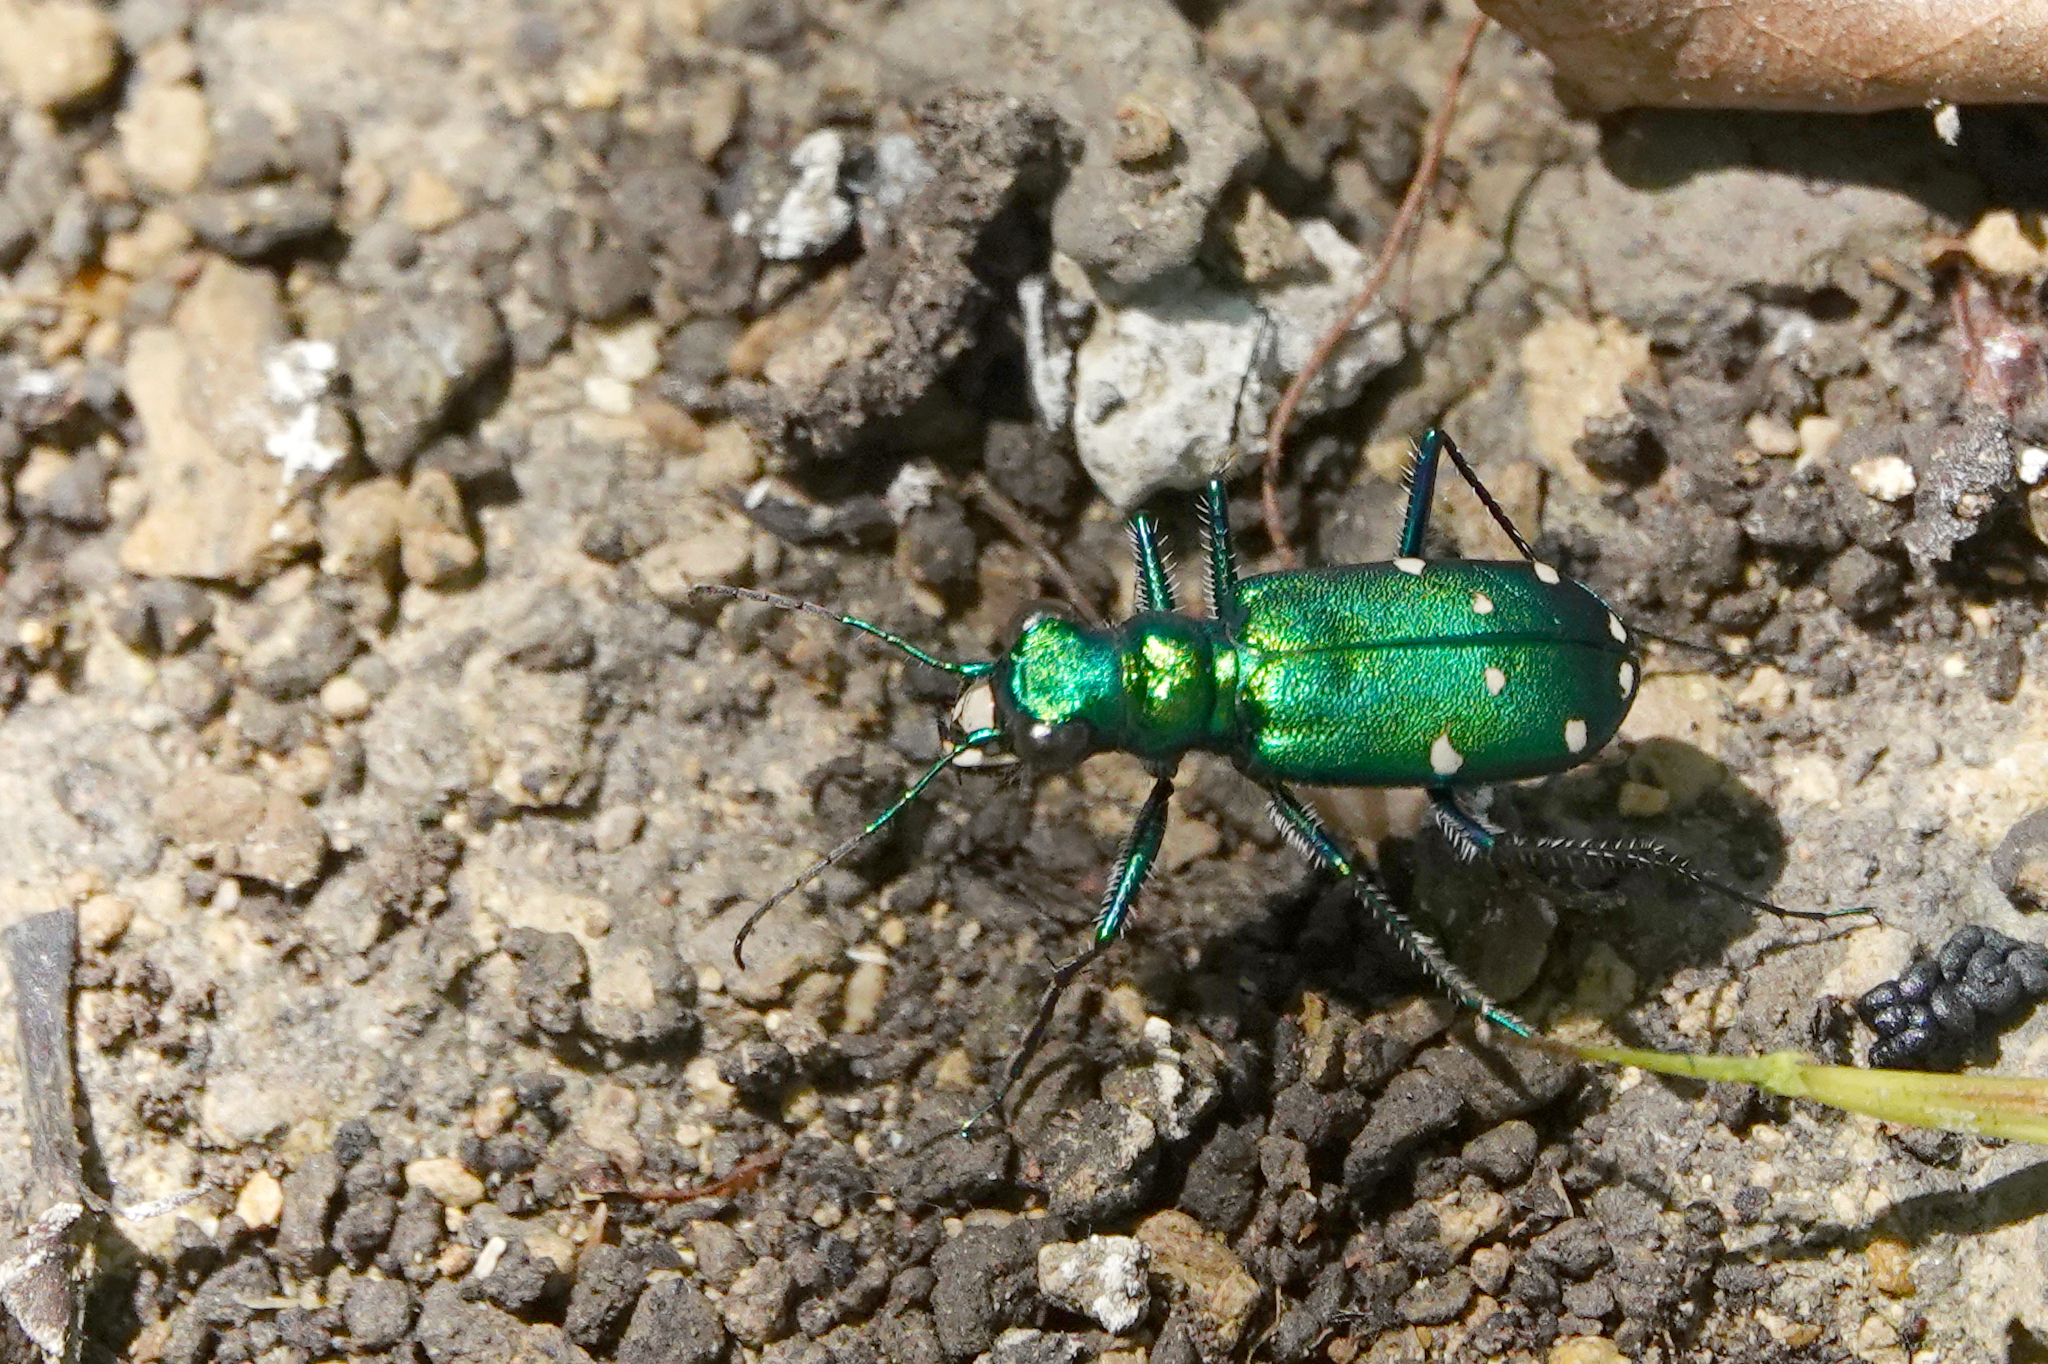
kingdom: Animalia
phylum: Arthropoda
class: Insecta
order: Coleoptera
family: Carabidae
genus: Cicindela
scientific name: Cicindela sexguttata
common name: Six-spotted tiger beetle
